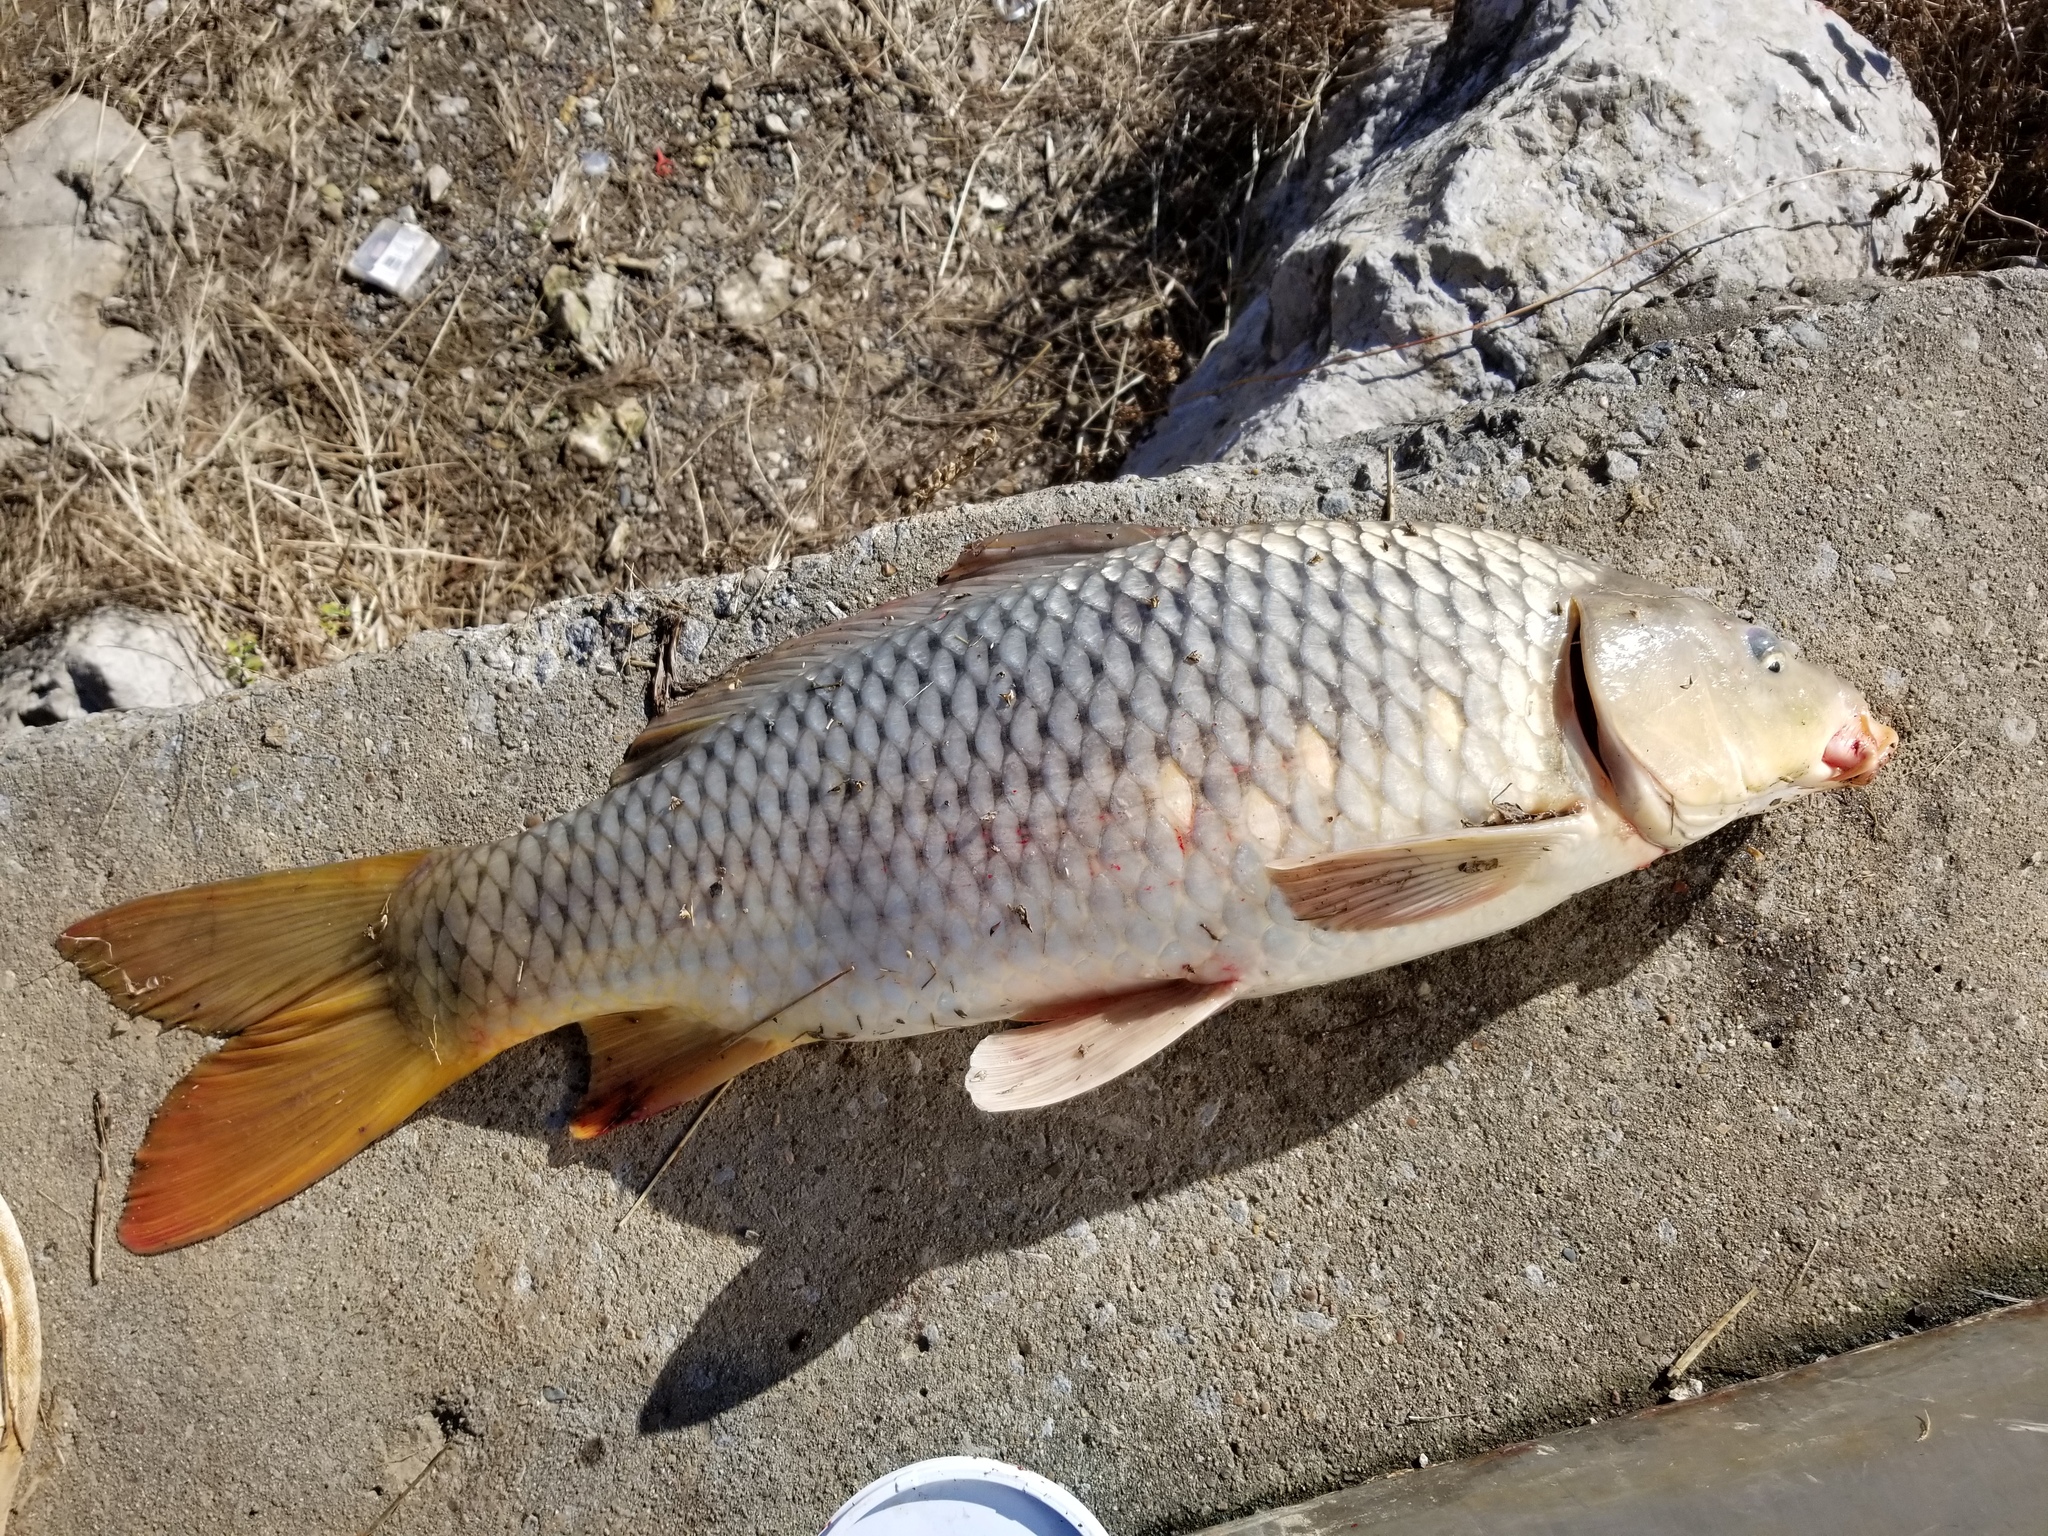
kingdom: Animalia
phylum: Chordata
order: Cypriniformes
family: Cyprinidae
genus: Cyprinus
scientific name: Cyprinus carpio
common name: Common carp
